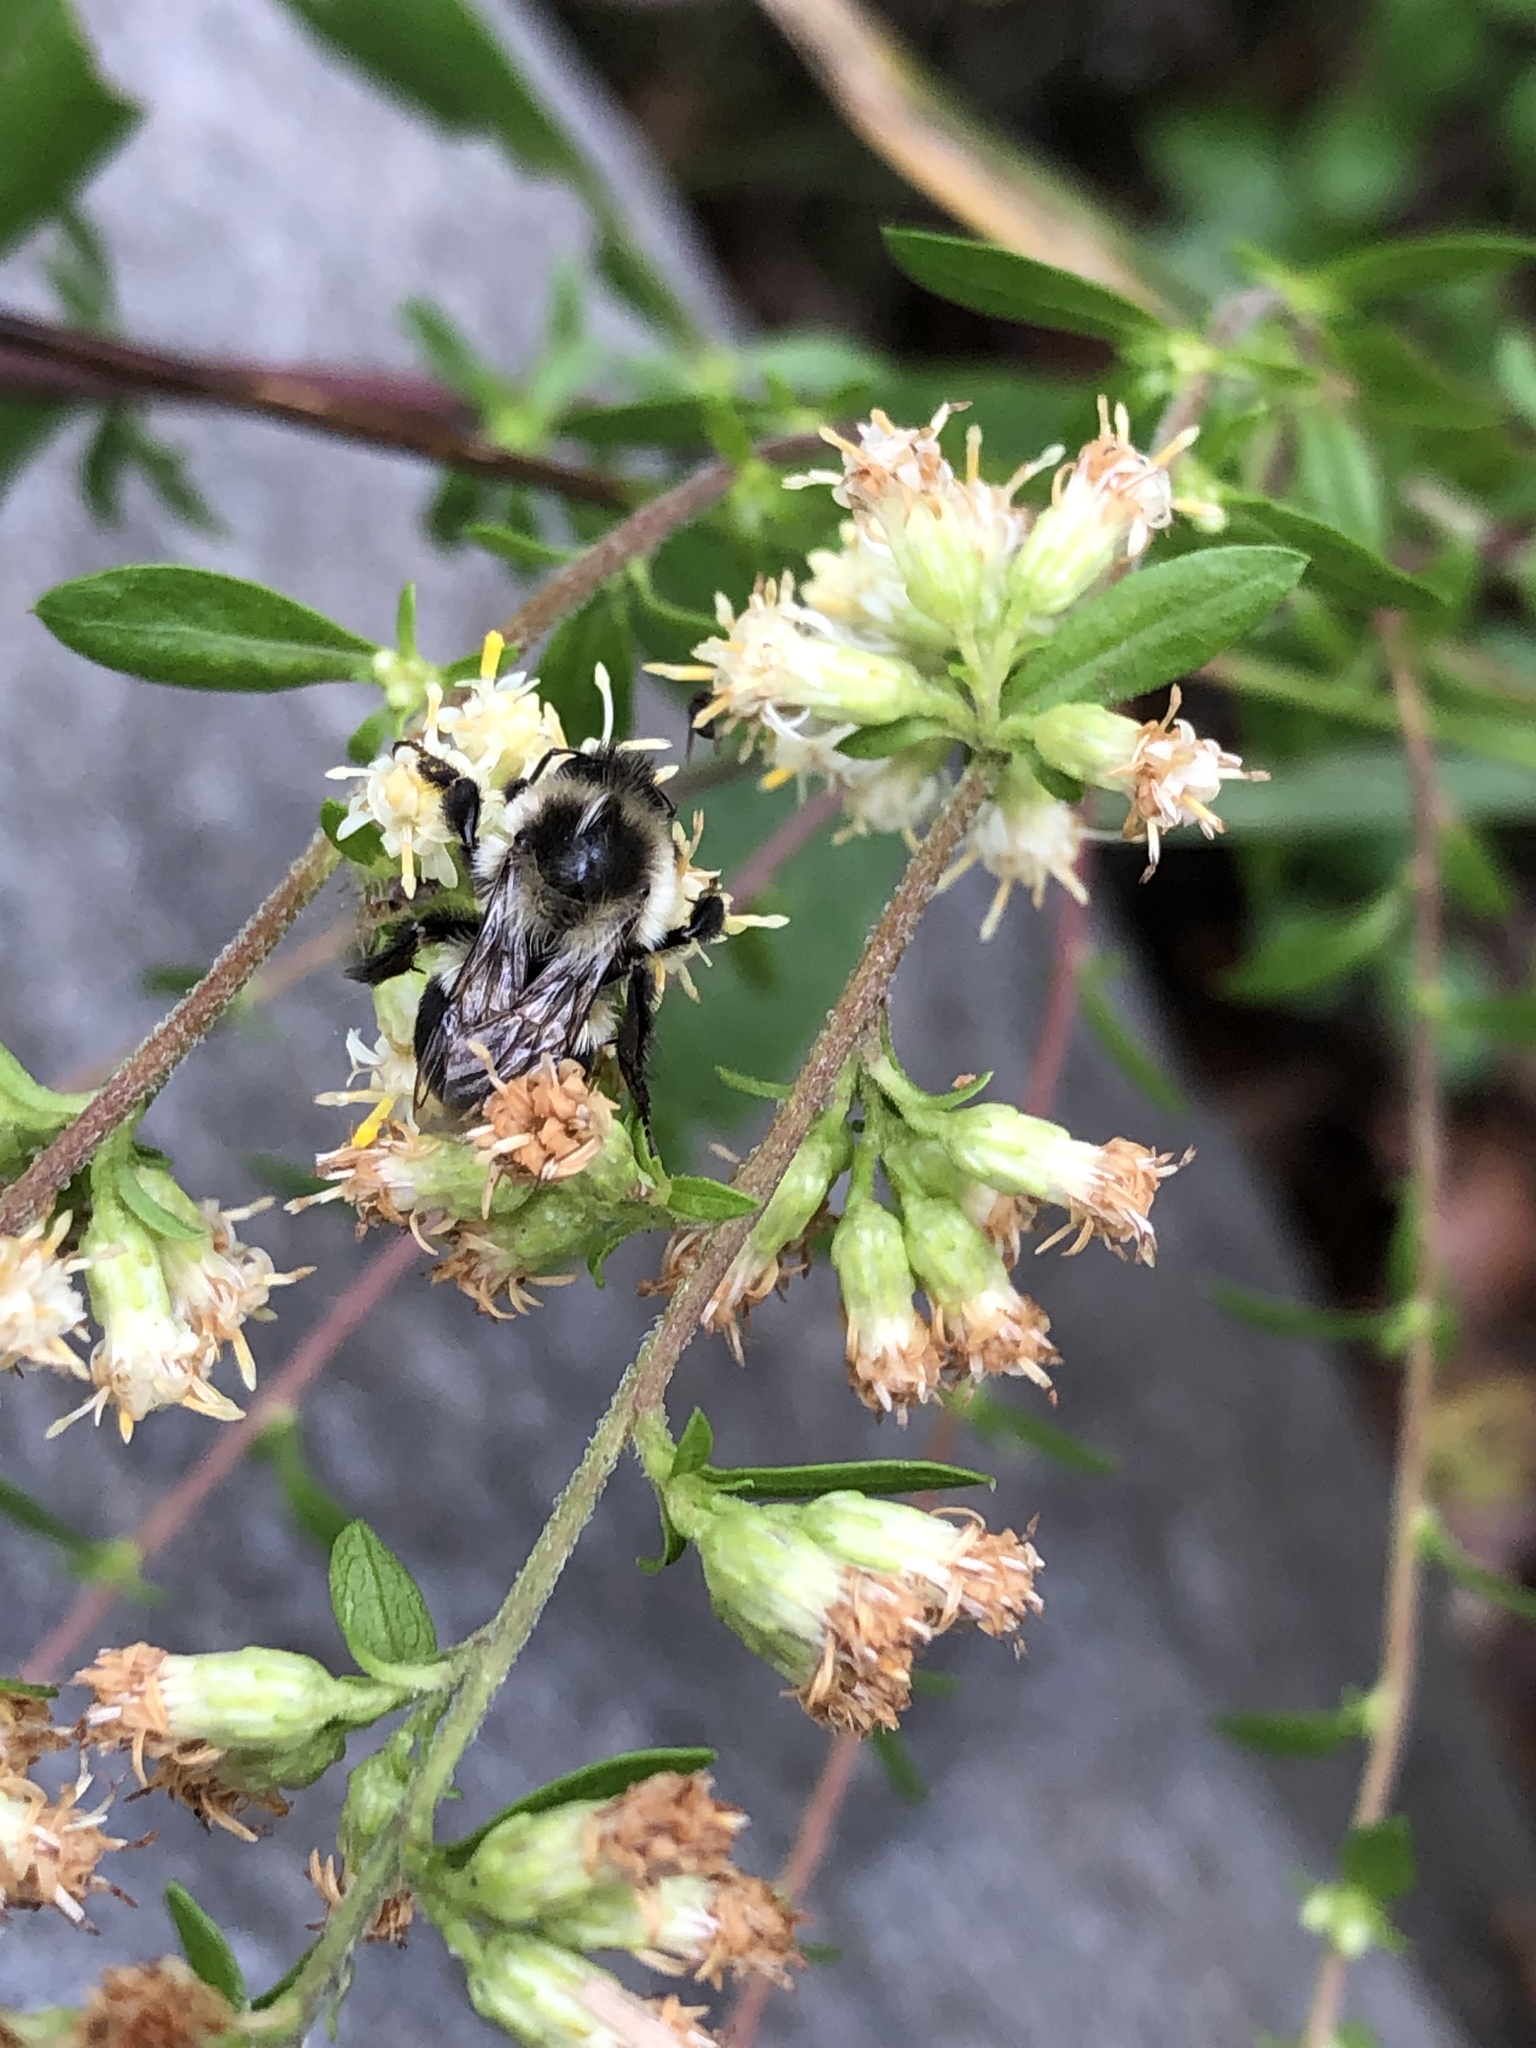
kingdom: Animalia
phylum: Arthropoda
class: Insecta
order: Hymenoptera
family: Apidae
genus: Bombus
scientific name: Bombus impatiens
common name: Common eastern bumble bee
